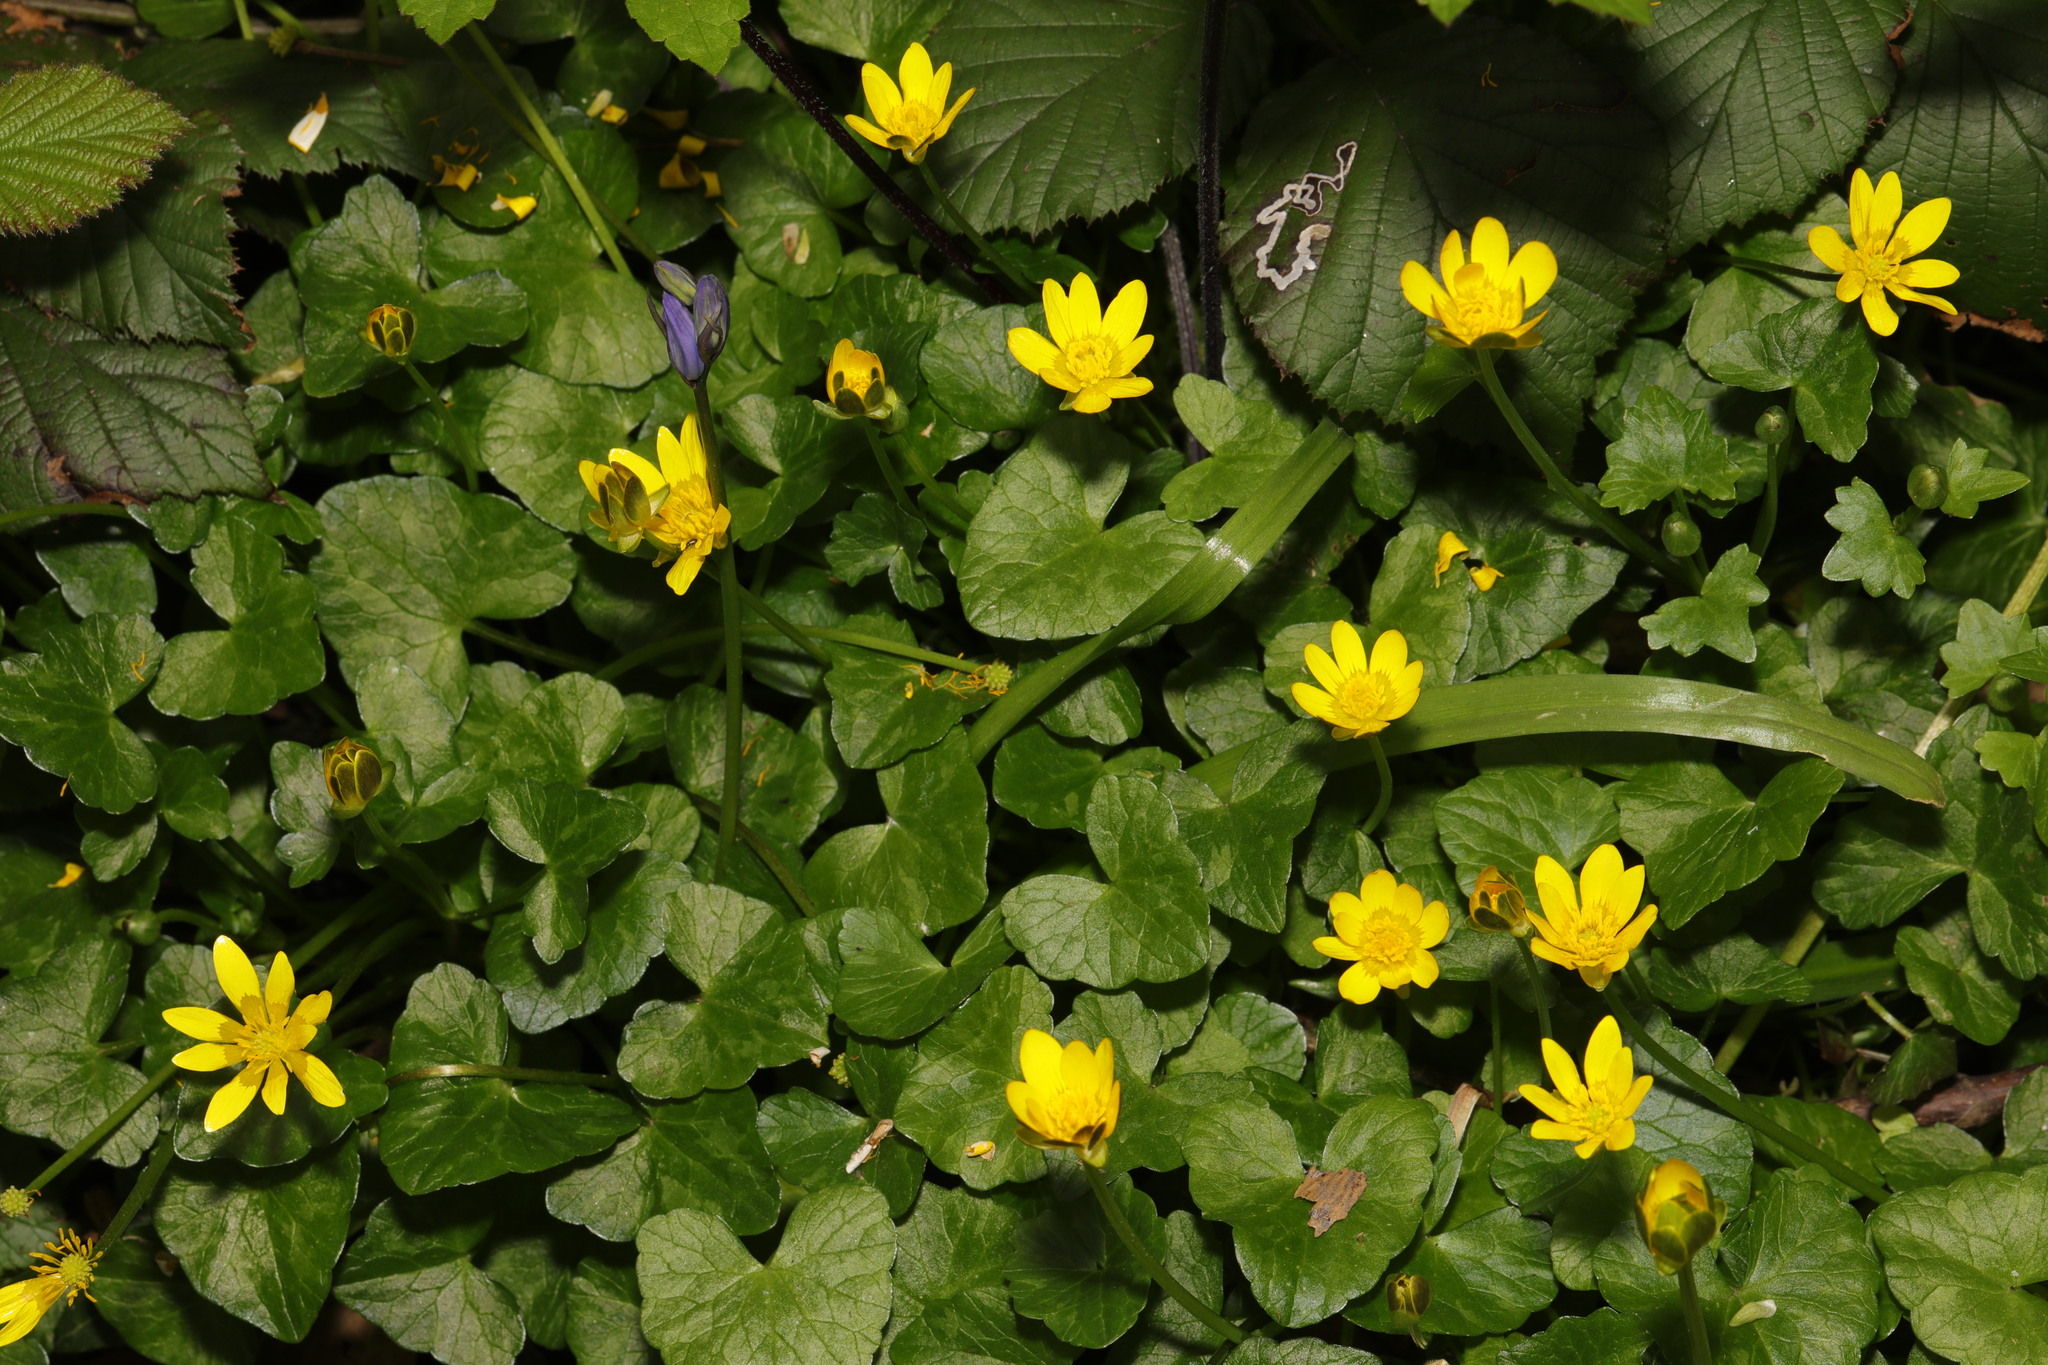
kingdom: Plantae
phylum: Tracheophyta
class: Magnoliopsida
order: Ranunculales
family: Ranunculaceae
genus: Ficaria
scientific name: Ficaria verna
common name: Lesser celandine
